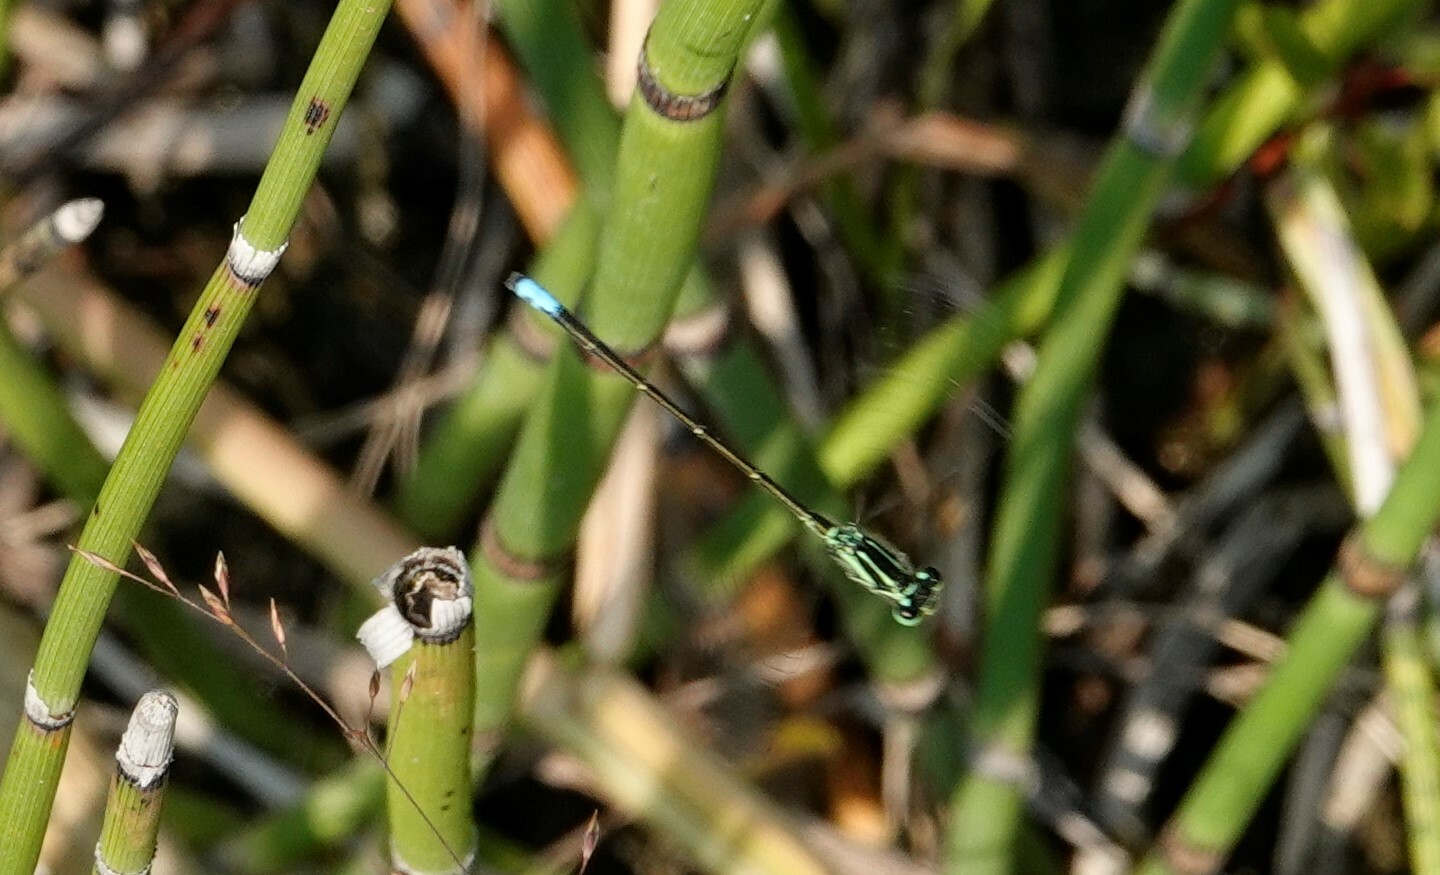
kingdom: Animalia
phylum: Arthropoda
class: Insecta
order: Odonata
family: Coenagrionidae
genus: Ischnura
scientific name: Ischnura verticalis
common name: Eastern forktail
